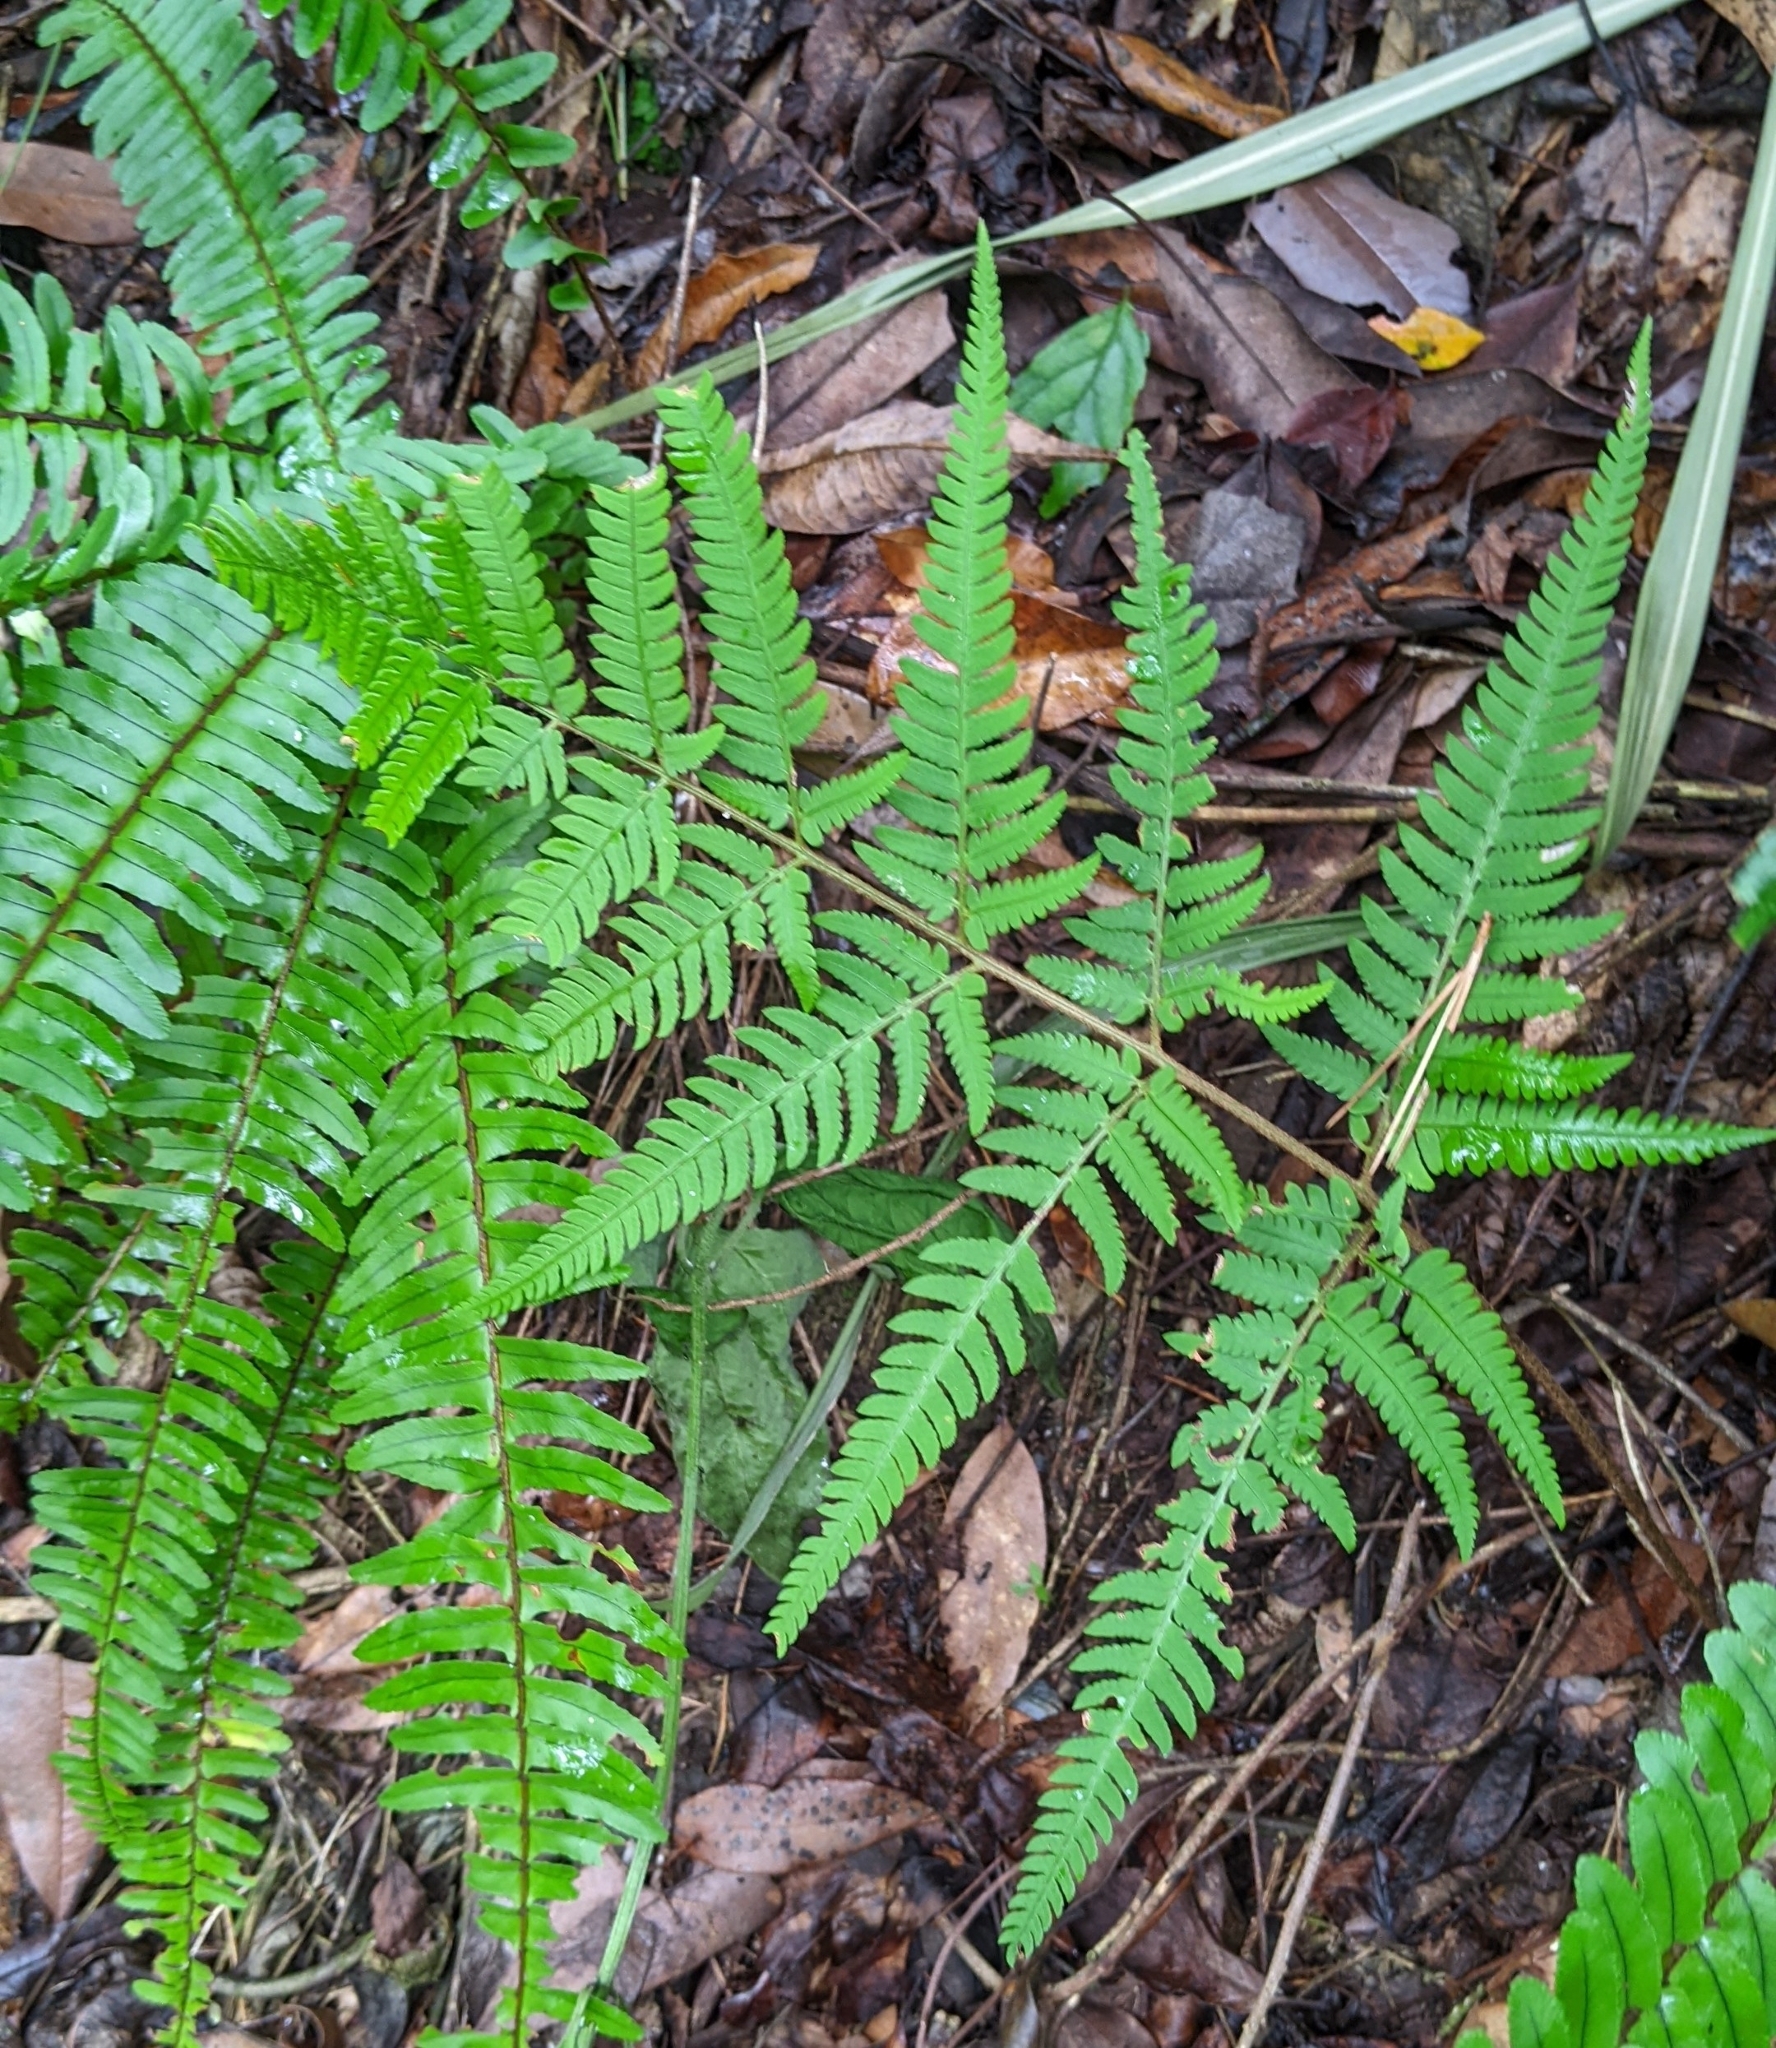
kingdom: Plantae
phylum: Tracheophyta
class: Polypodiopsida
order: Polypodiales
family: Dryopteridaceae
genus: Dryopteris
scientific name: Dryopteris formosana
